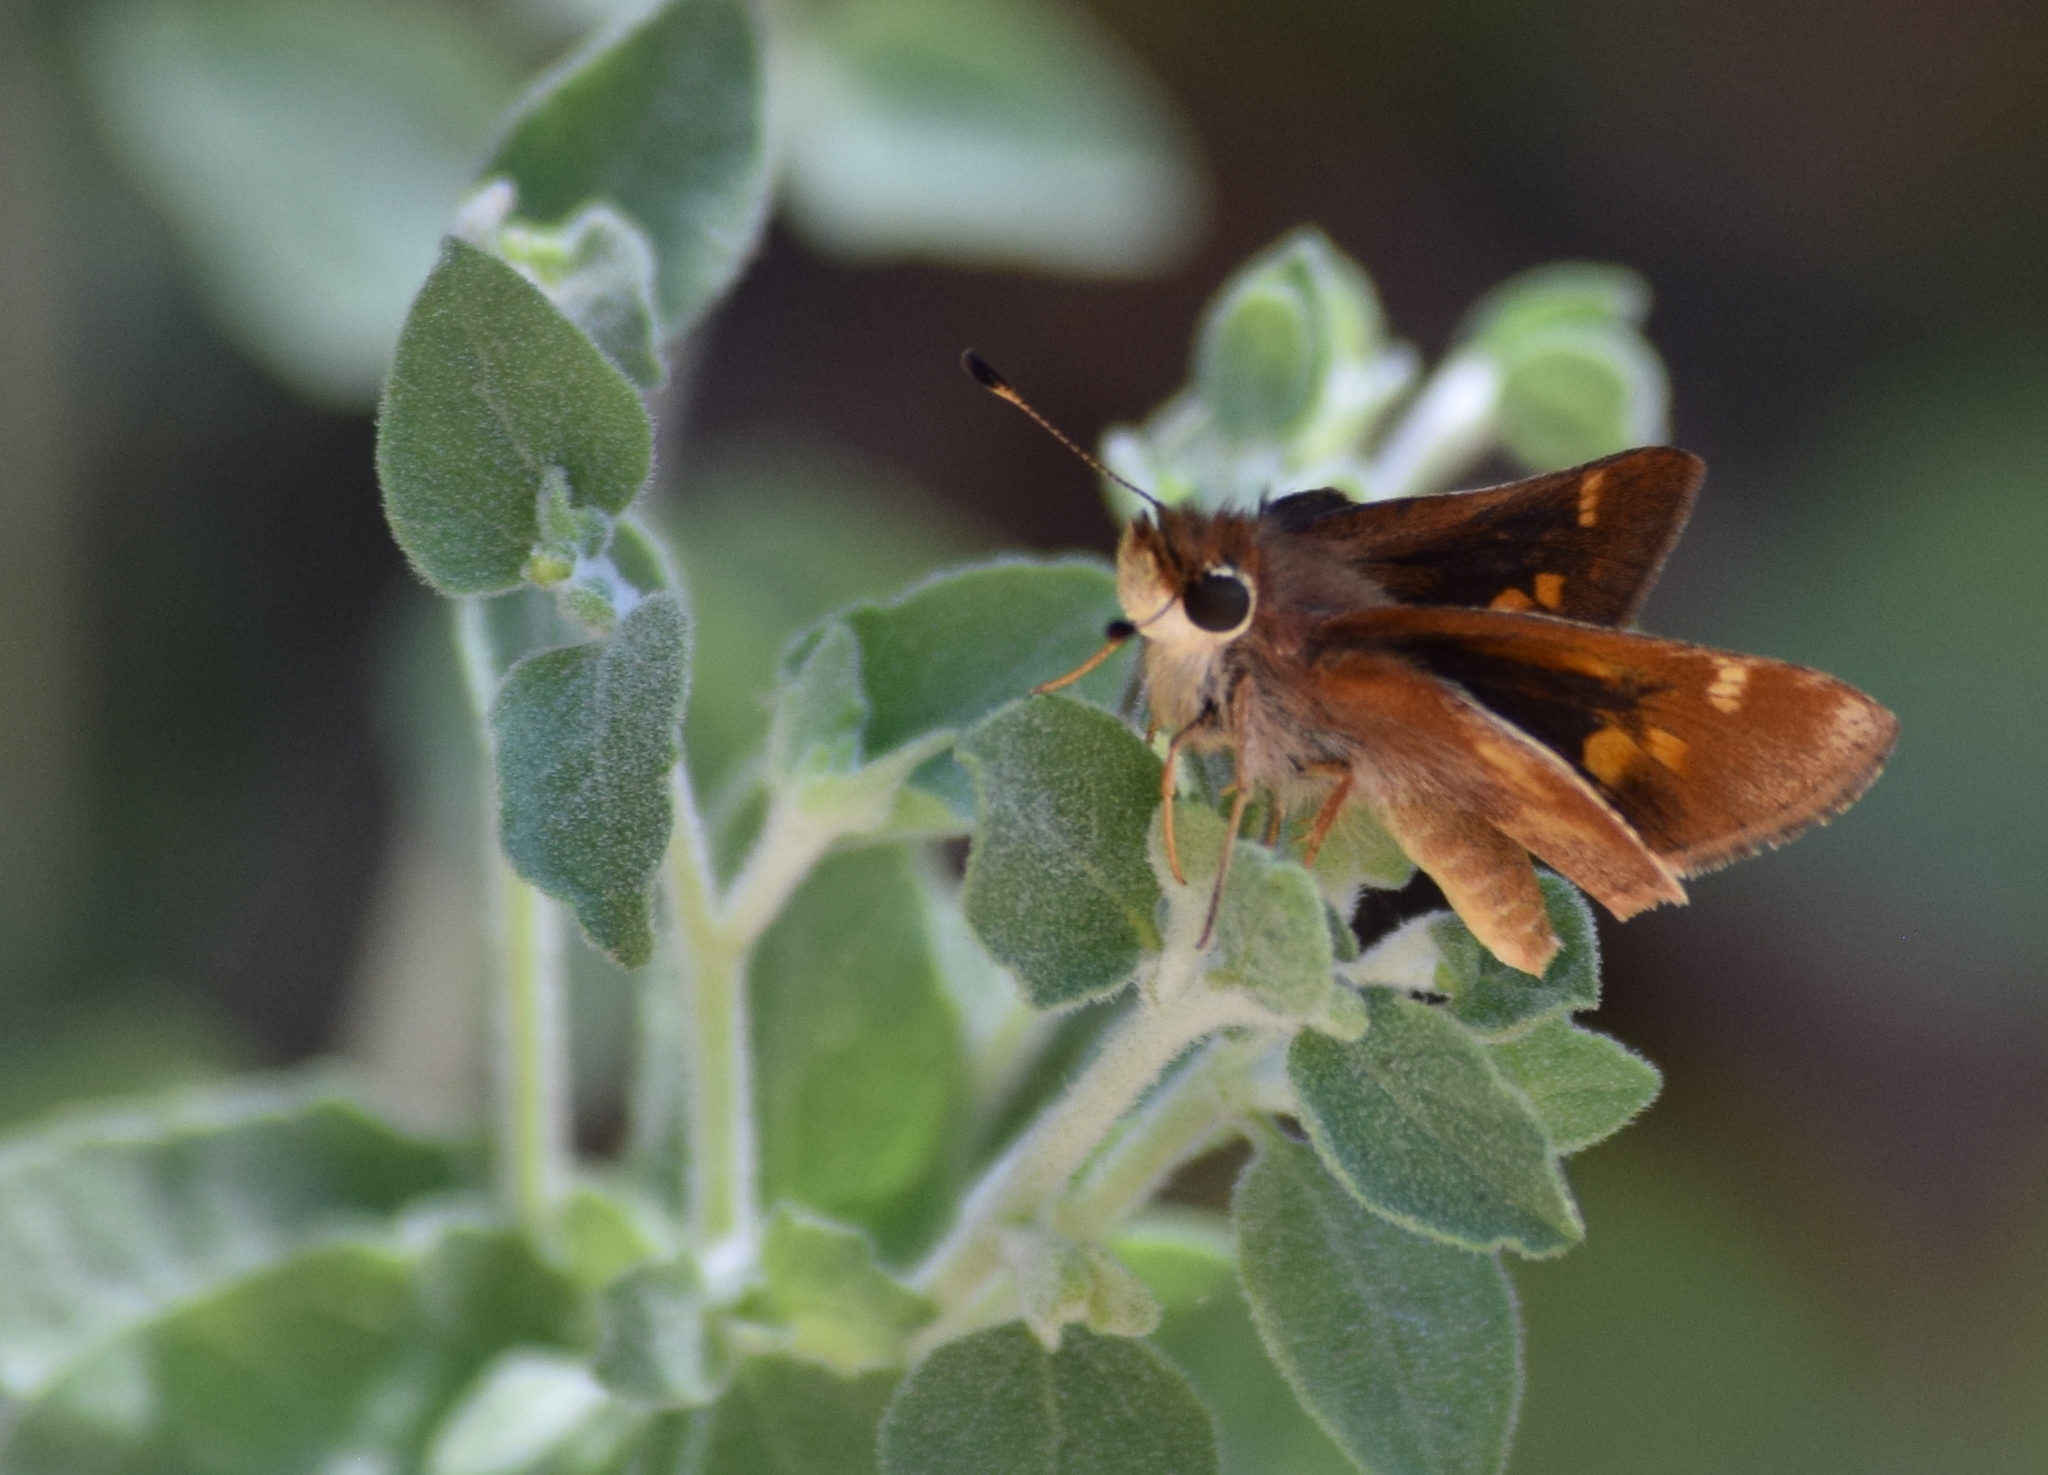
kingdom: Animalia
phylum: Arthropoda
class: Insecta
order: Lepidoptera
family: Hesperiidae
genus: Lon
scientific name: Lon melane
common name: Umber skipper
